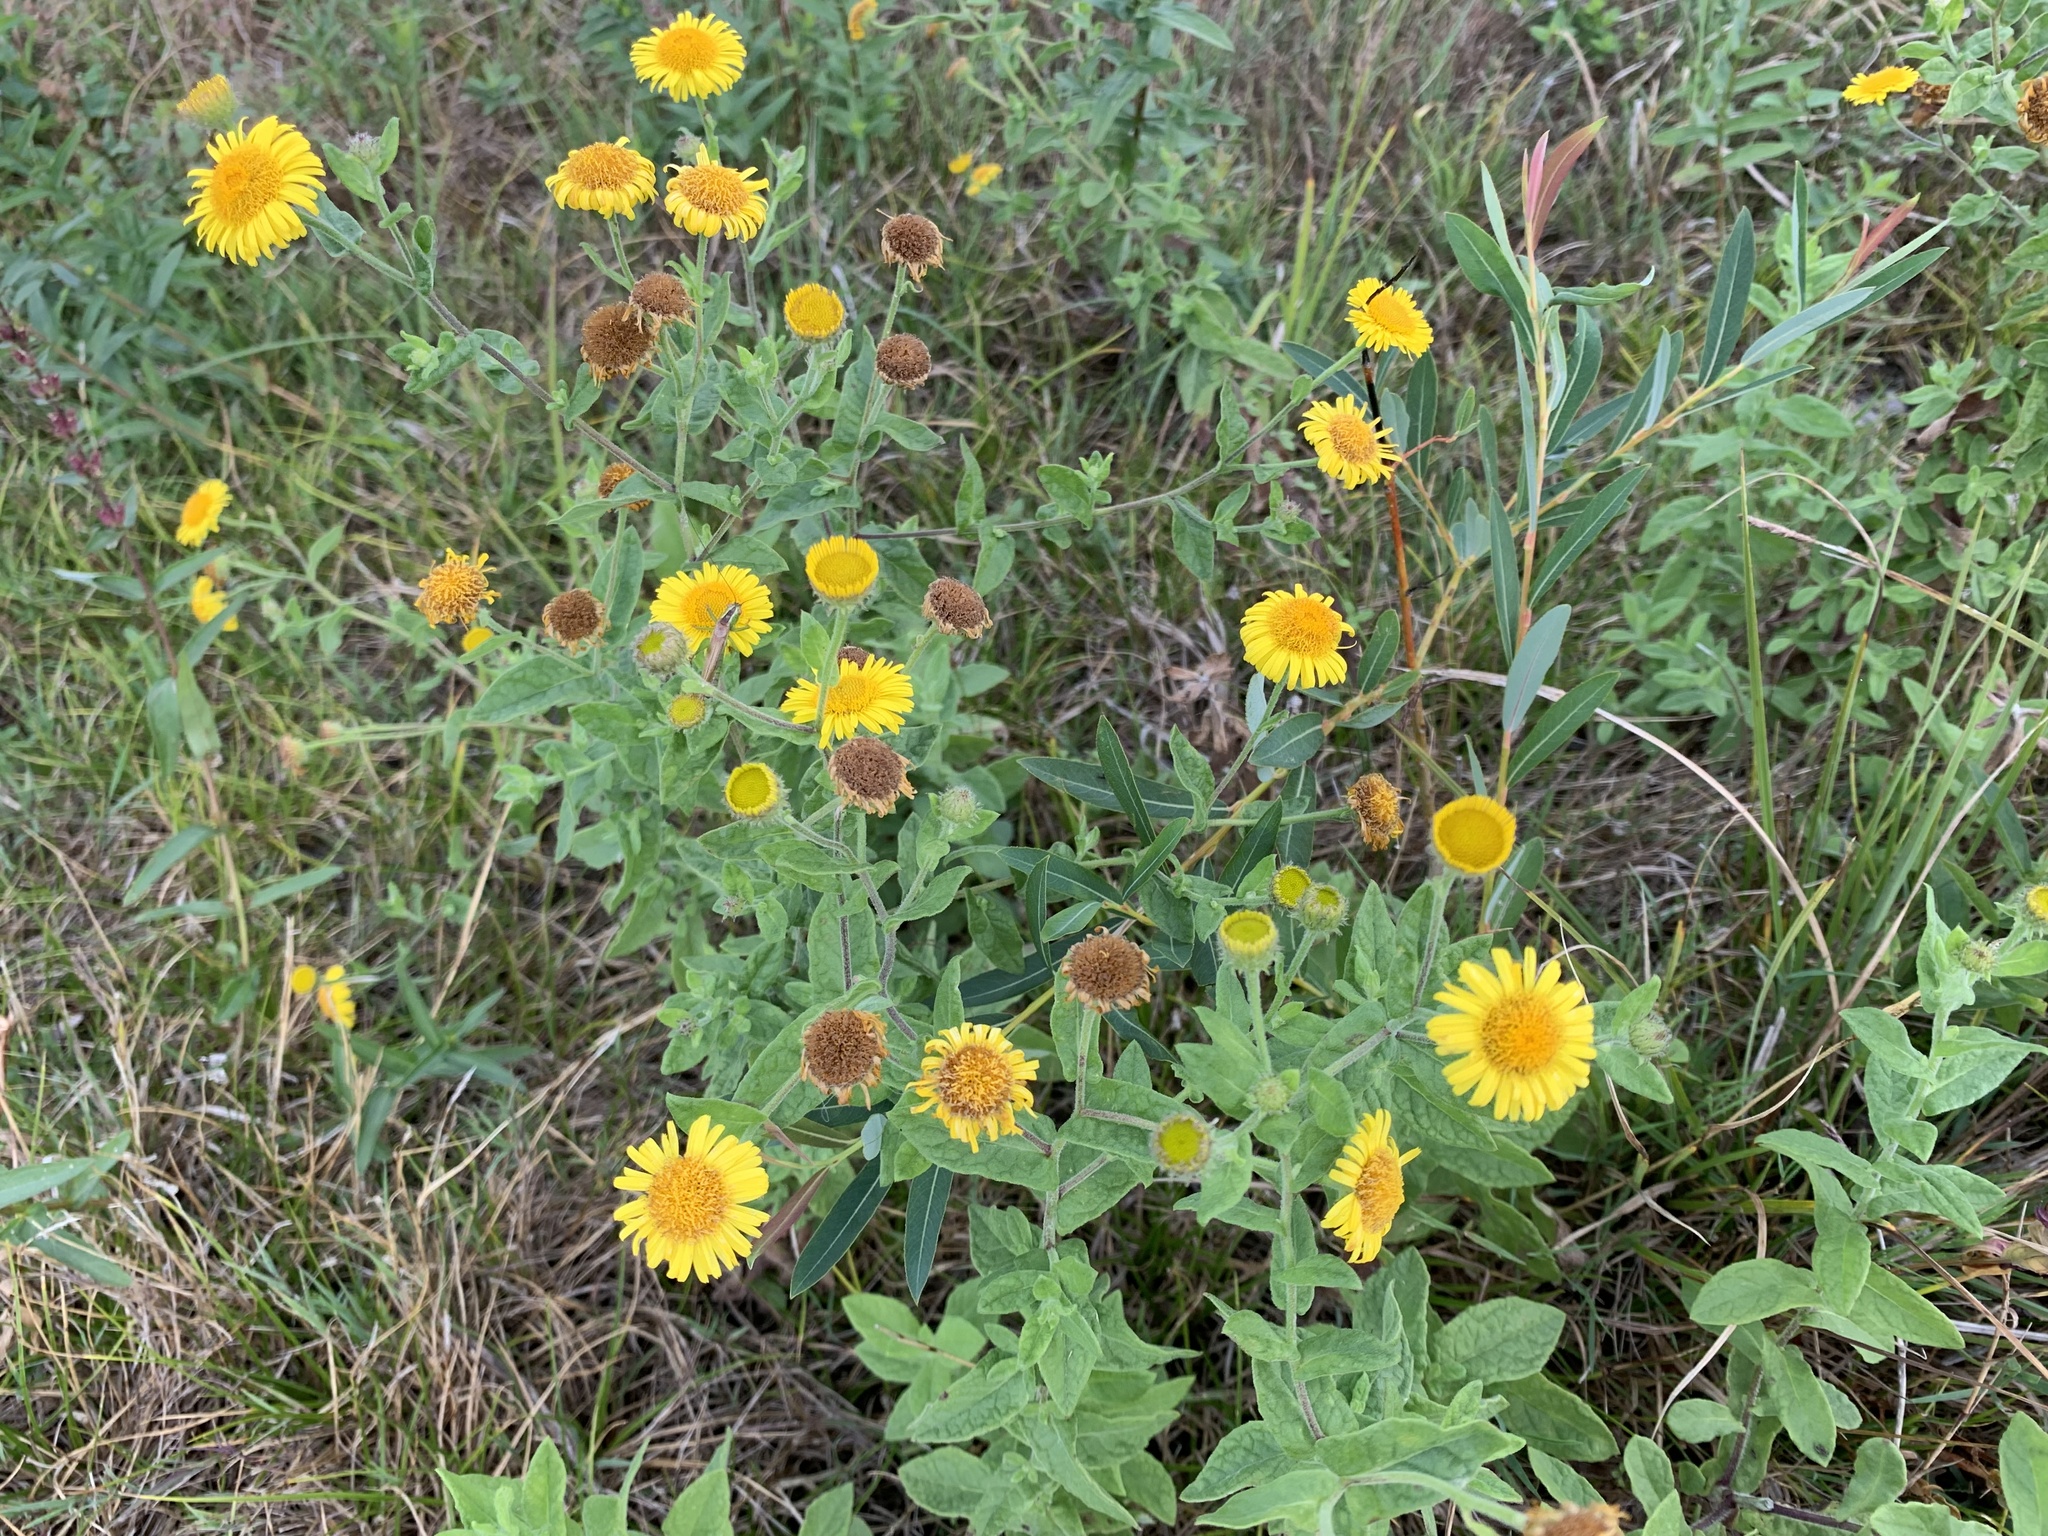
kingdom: Plantae
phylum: Tracheophyta
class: Magnoliopsida
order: Asterales
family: Asteraceae
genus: Pulicaria
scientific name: Pulicaria dysenterica
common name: Common fleabane
